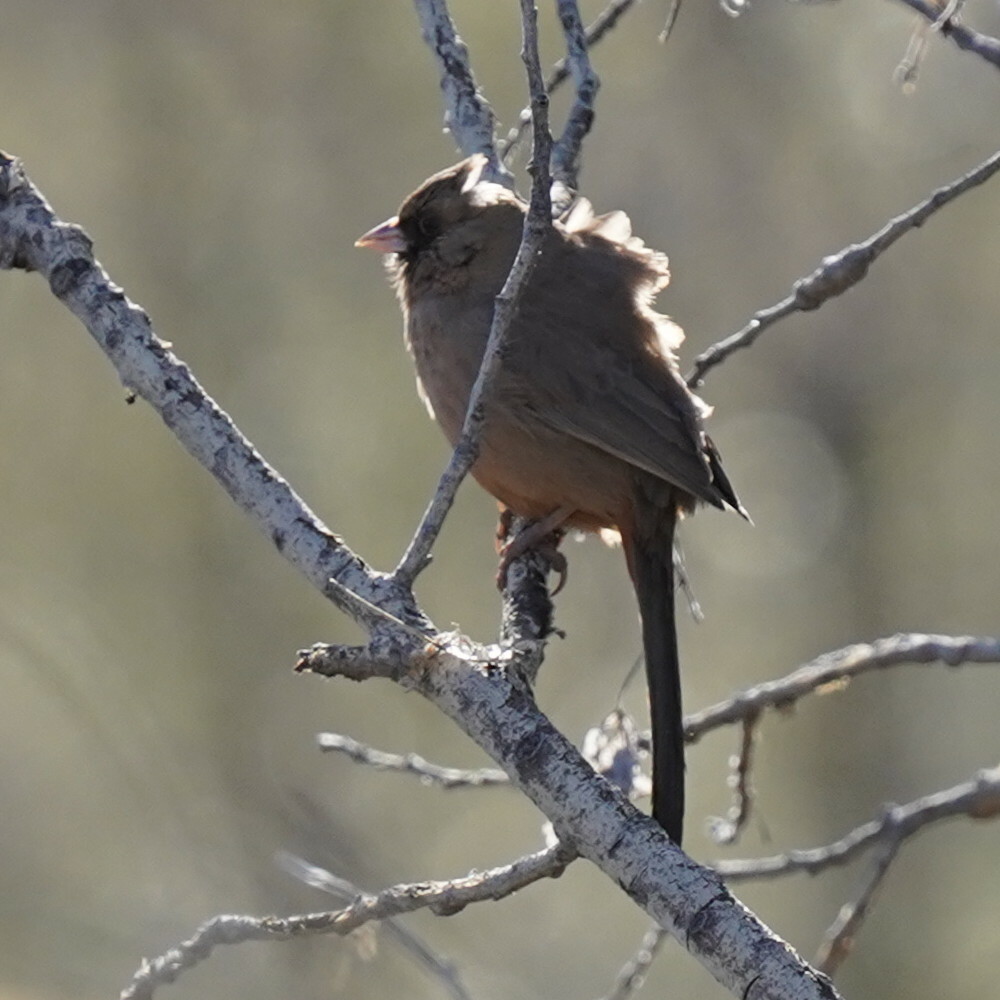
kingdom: Animalia
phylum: Chordata
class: Aves
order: Passeriformes
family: Passerellidae
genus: Melozone
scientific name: Melozone aberti
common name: Abert's towhee
